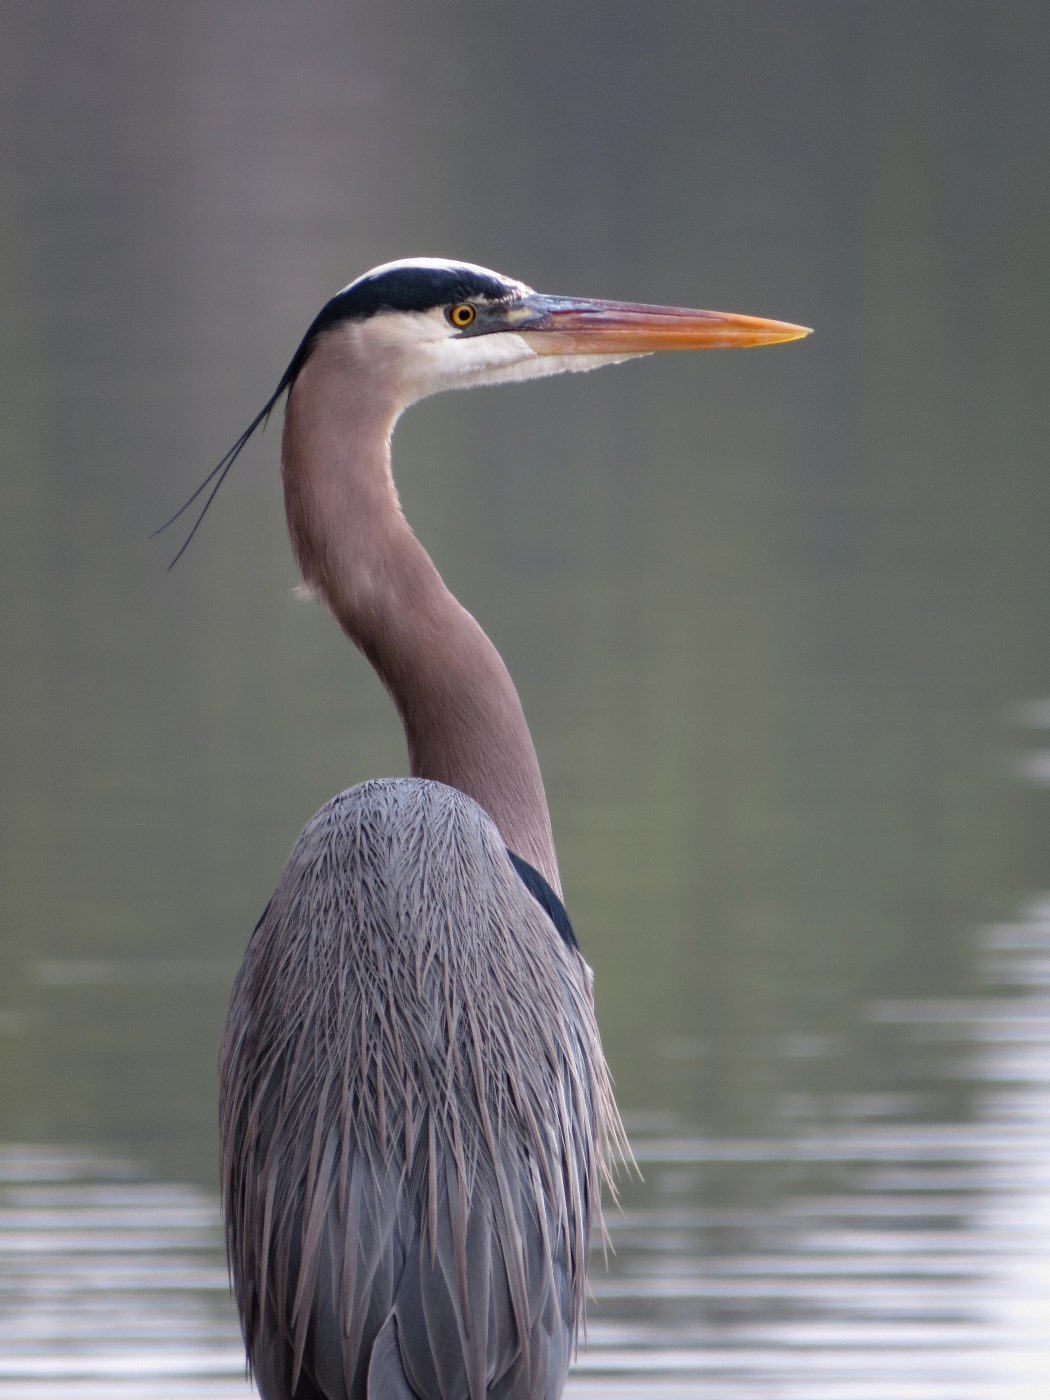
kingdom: Animalia
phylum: Chordata
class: Aves
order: Pelecaniformes
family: Ardeidae
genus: Ardea
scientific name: Ardea herodias
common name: Great blue heron
